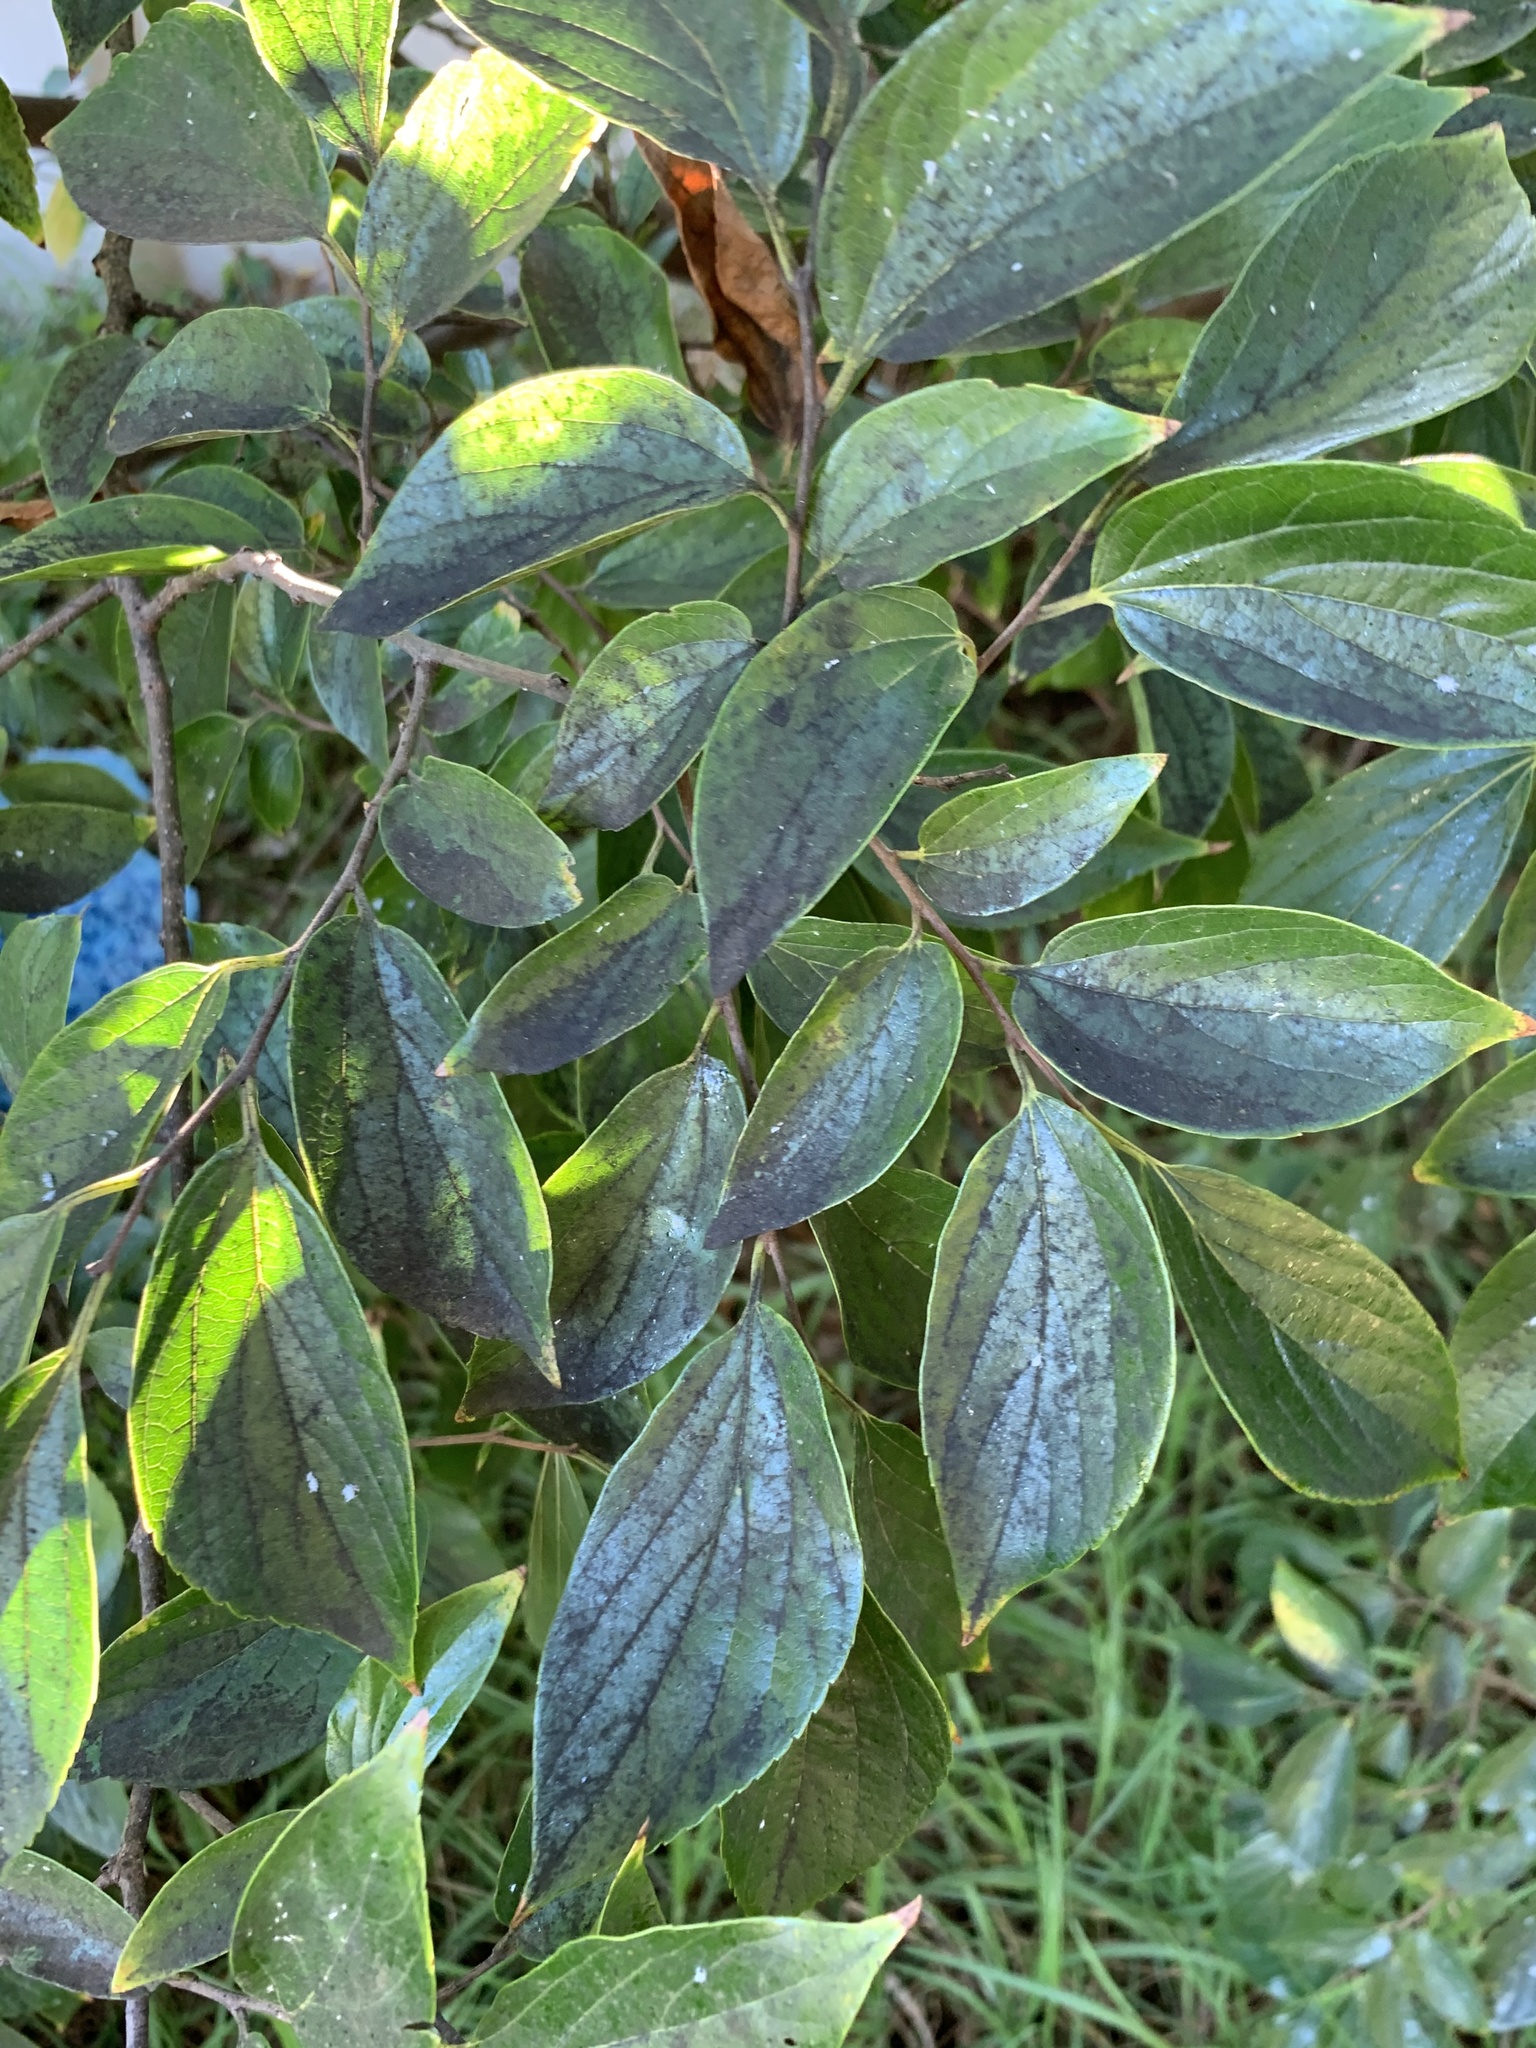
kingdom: Plantae
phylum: Tracheophyta
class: Magnoliopsida
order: Rosales
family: Cannabaceae
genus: Celtis
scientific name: Celtis sinensis
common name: Chinese hackberry
